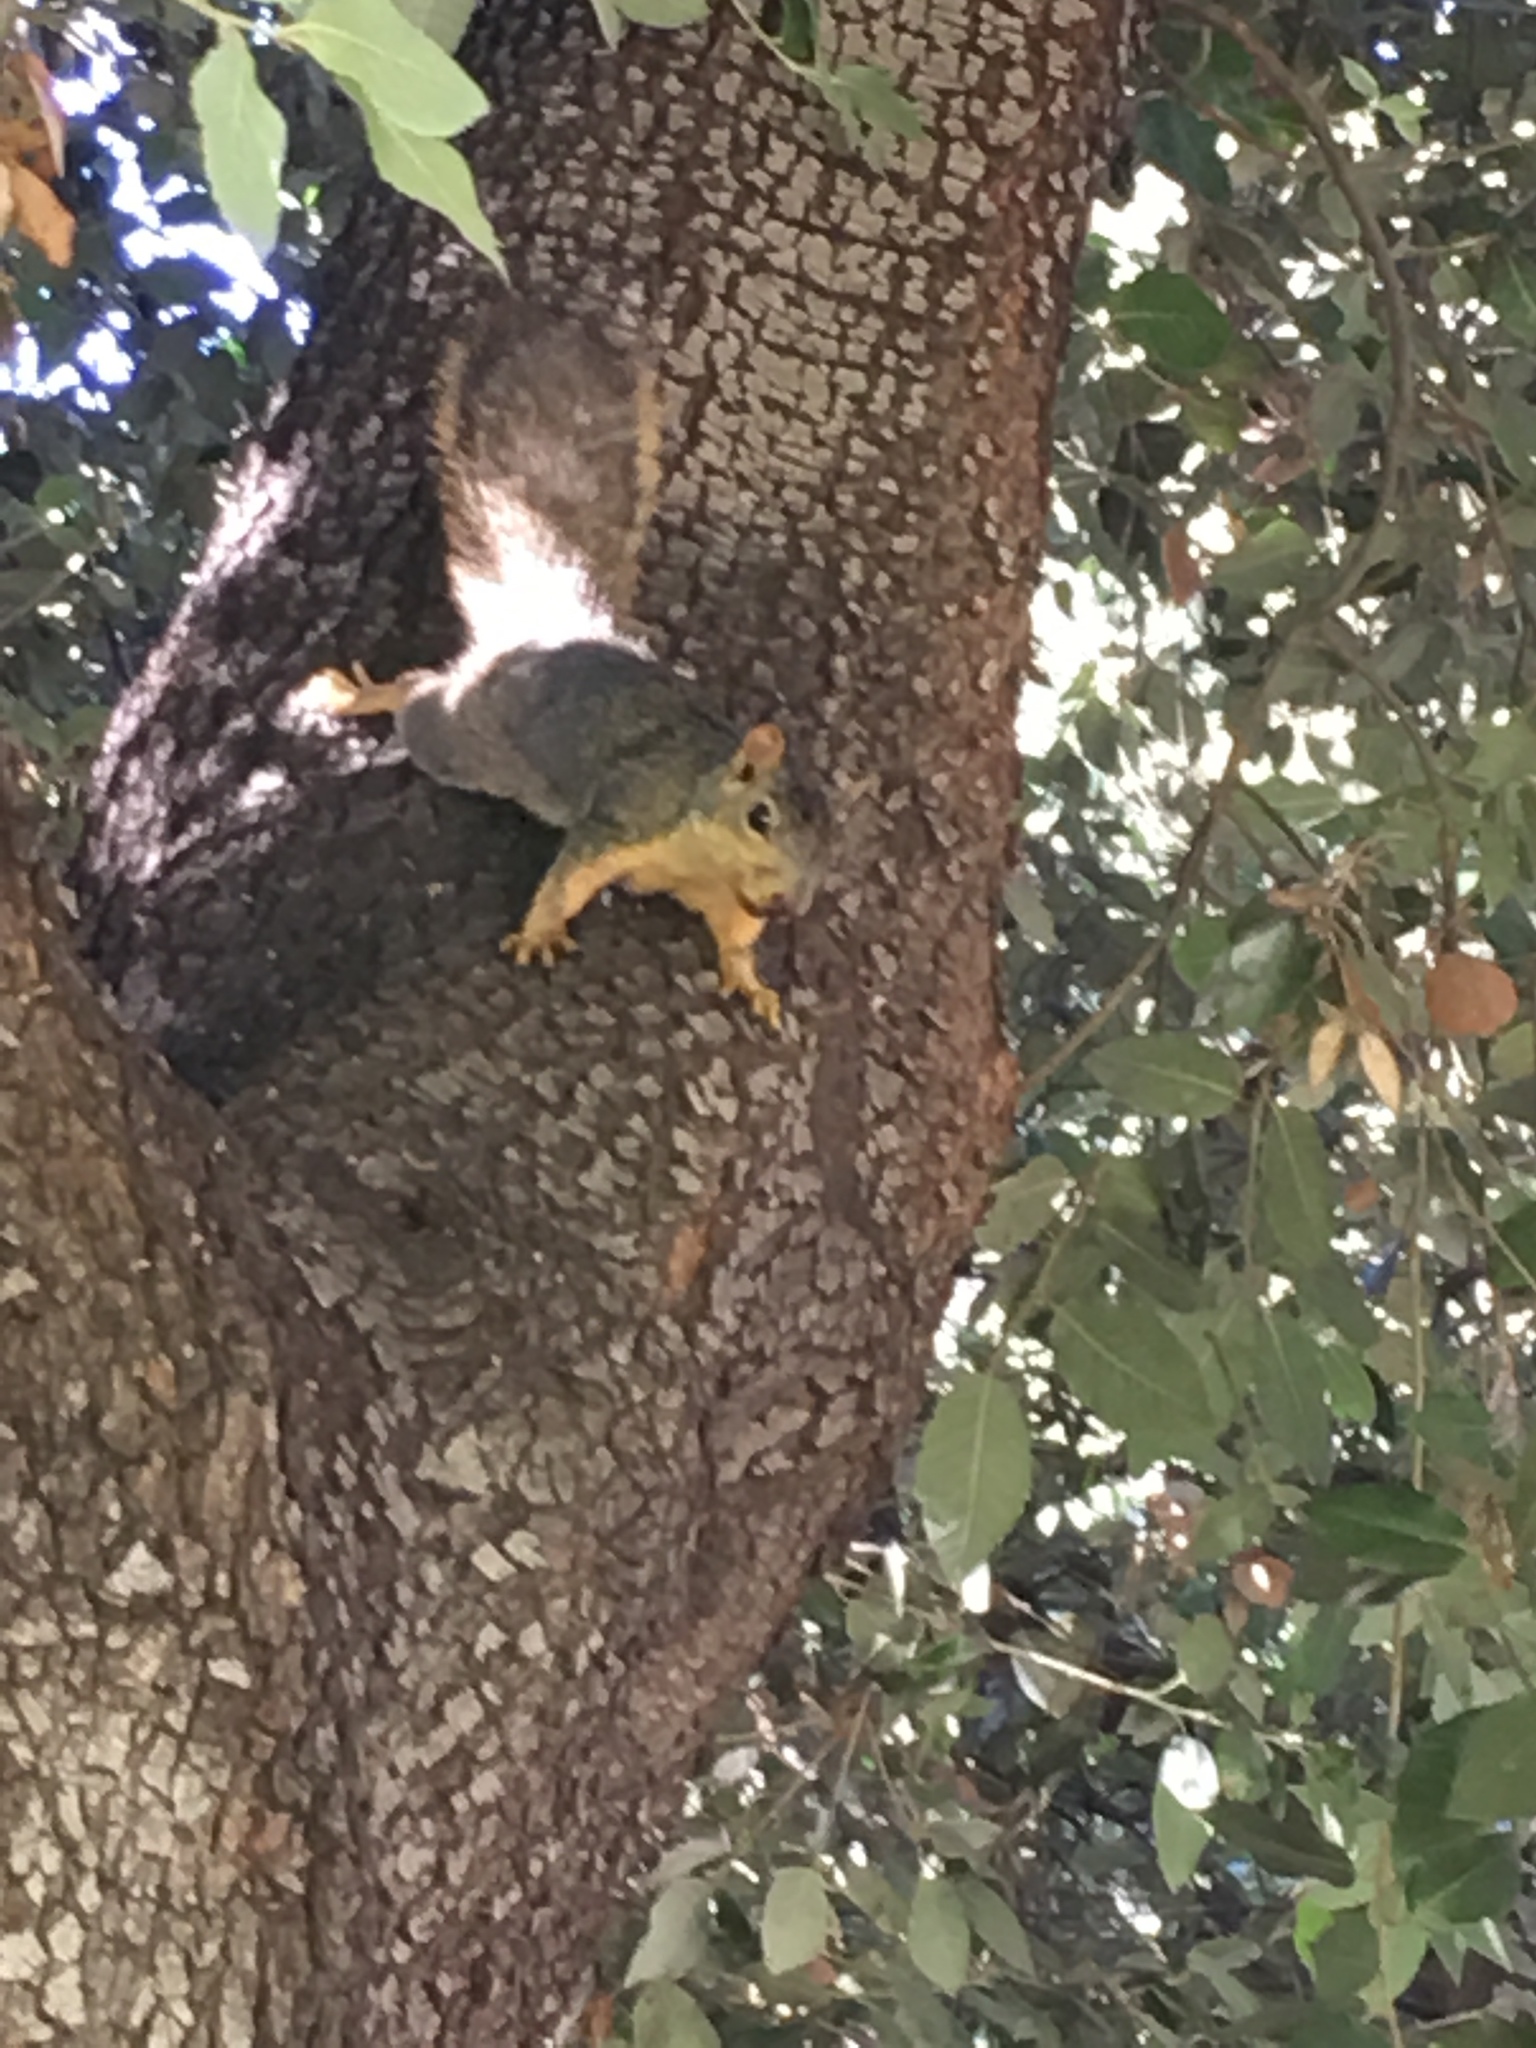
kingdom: Animalia
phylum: Chordata
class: Mammalia
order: Rodentia
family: Sciuridae
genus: Sciurus
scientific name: Sciurus niger
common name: Fox squirrel
